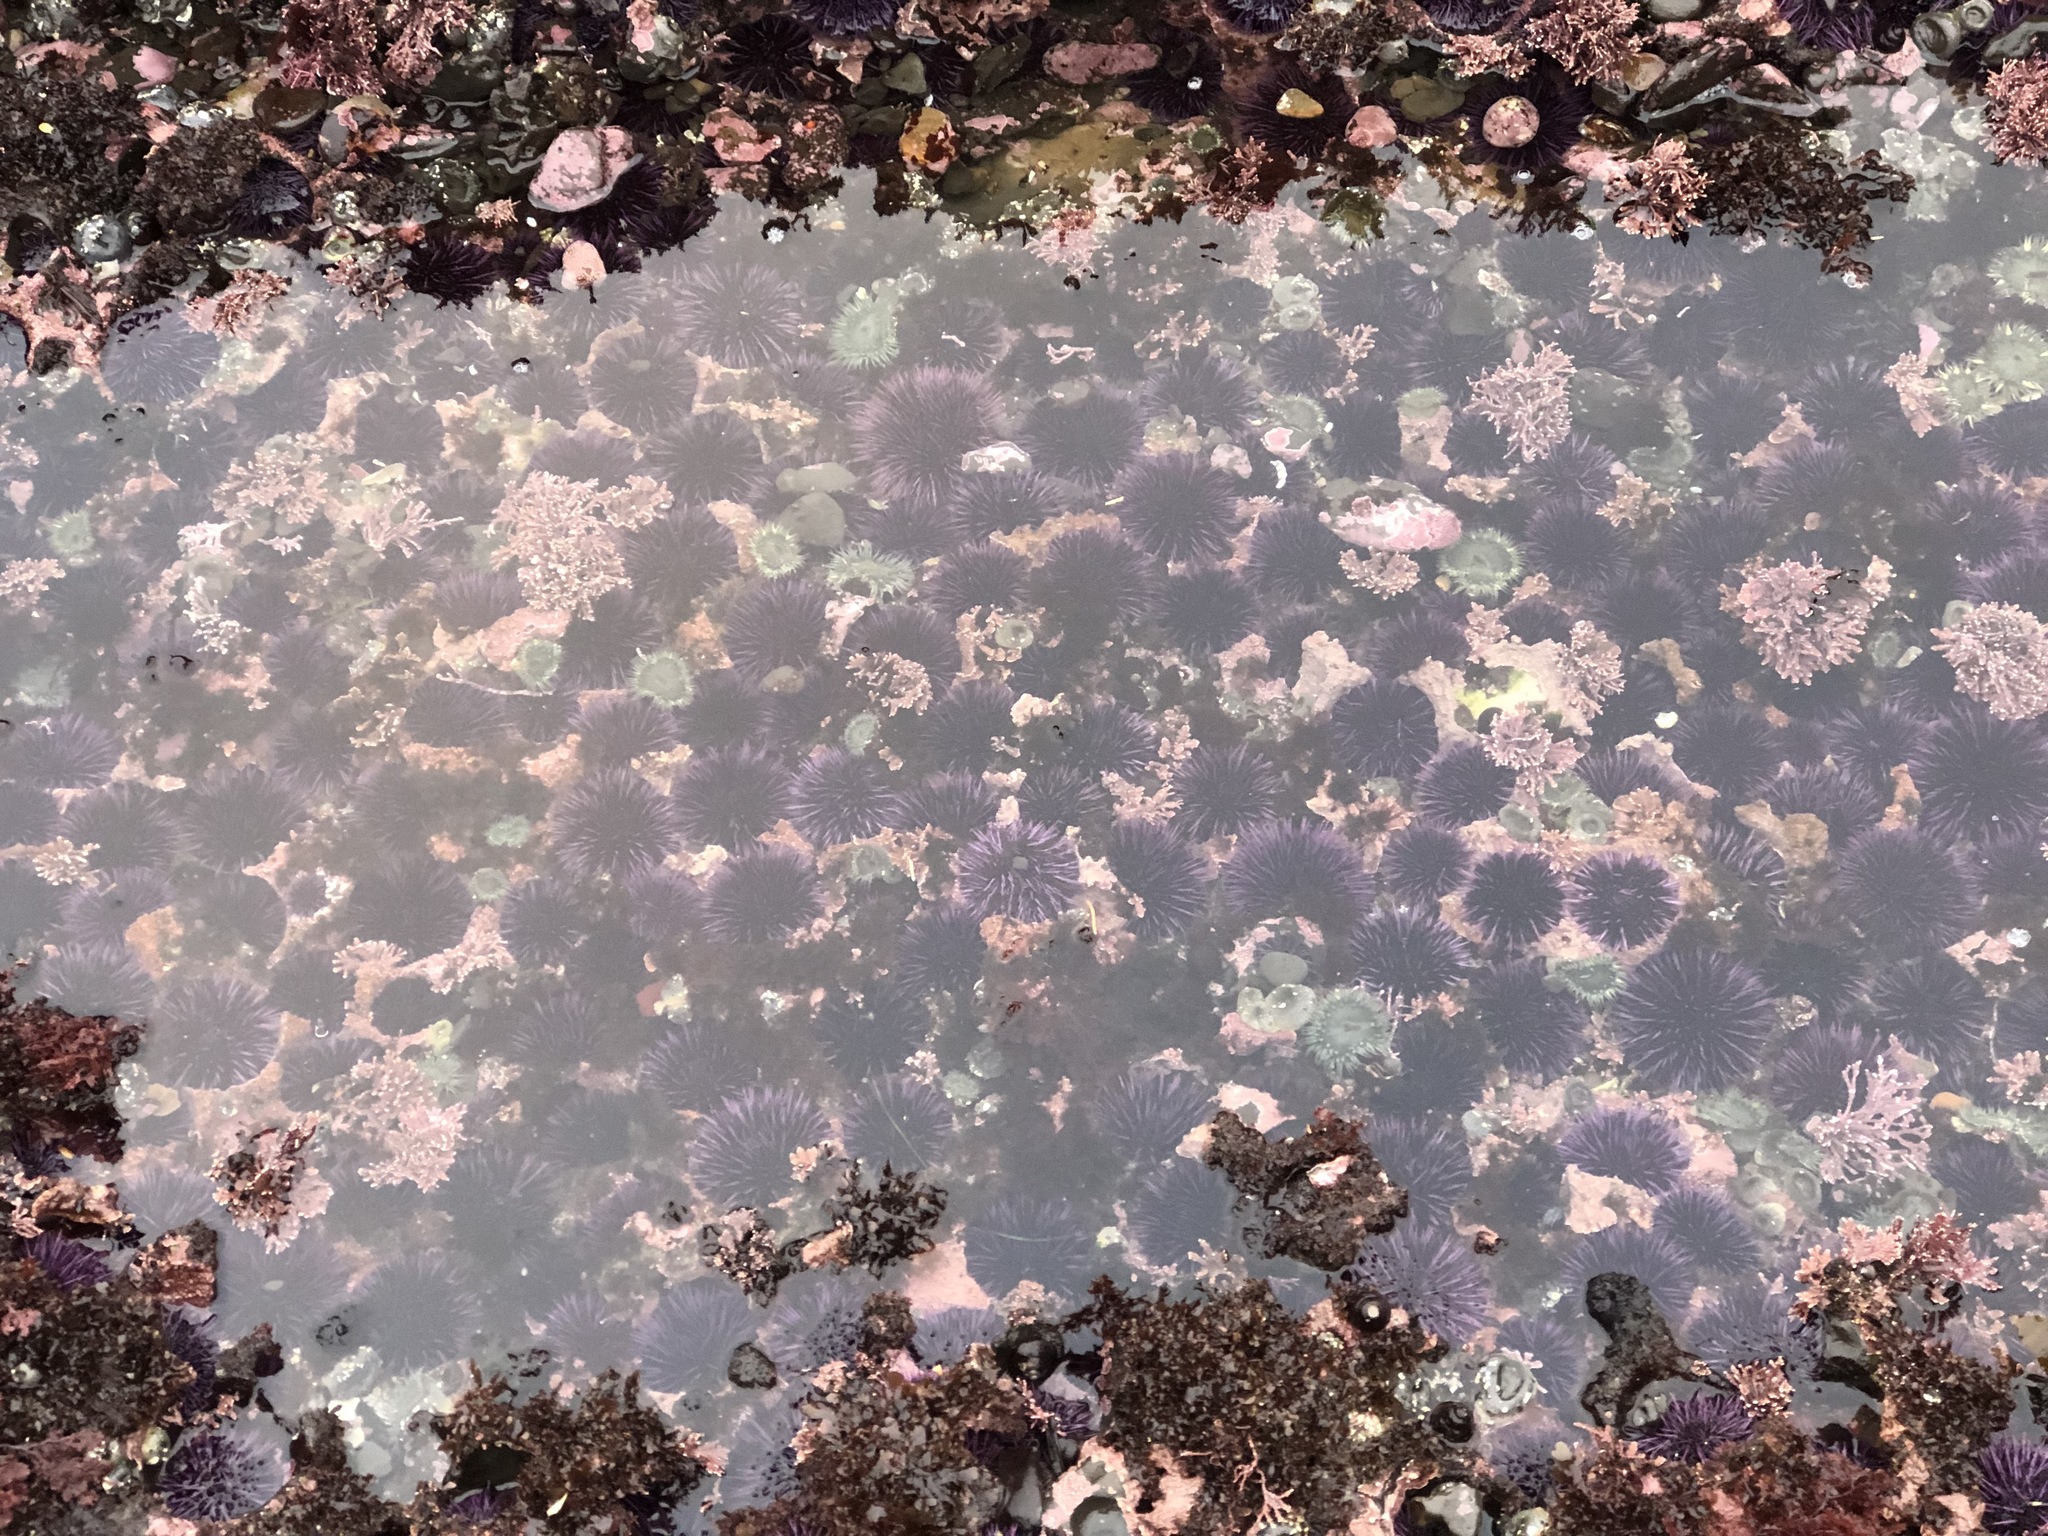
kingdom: Animalia
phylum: Echinodermata
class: Echinoidea
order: Camarodonta
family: Strongylocentrotidae
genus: Strongylocentrotus
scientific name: Strongylocentrotus purpuratus
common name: Purple sea urchin
